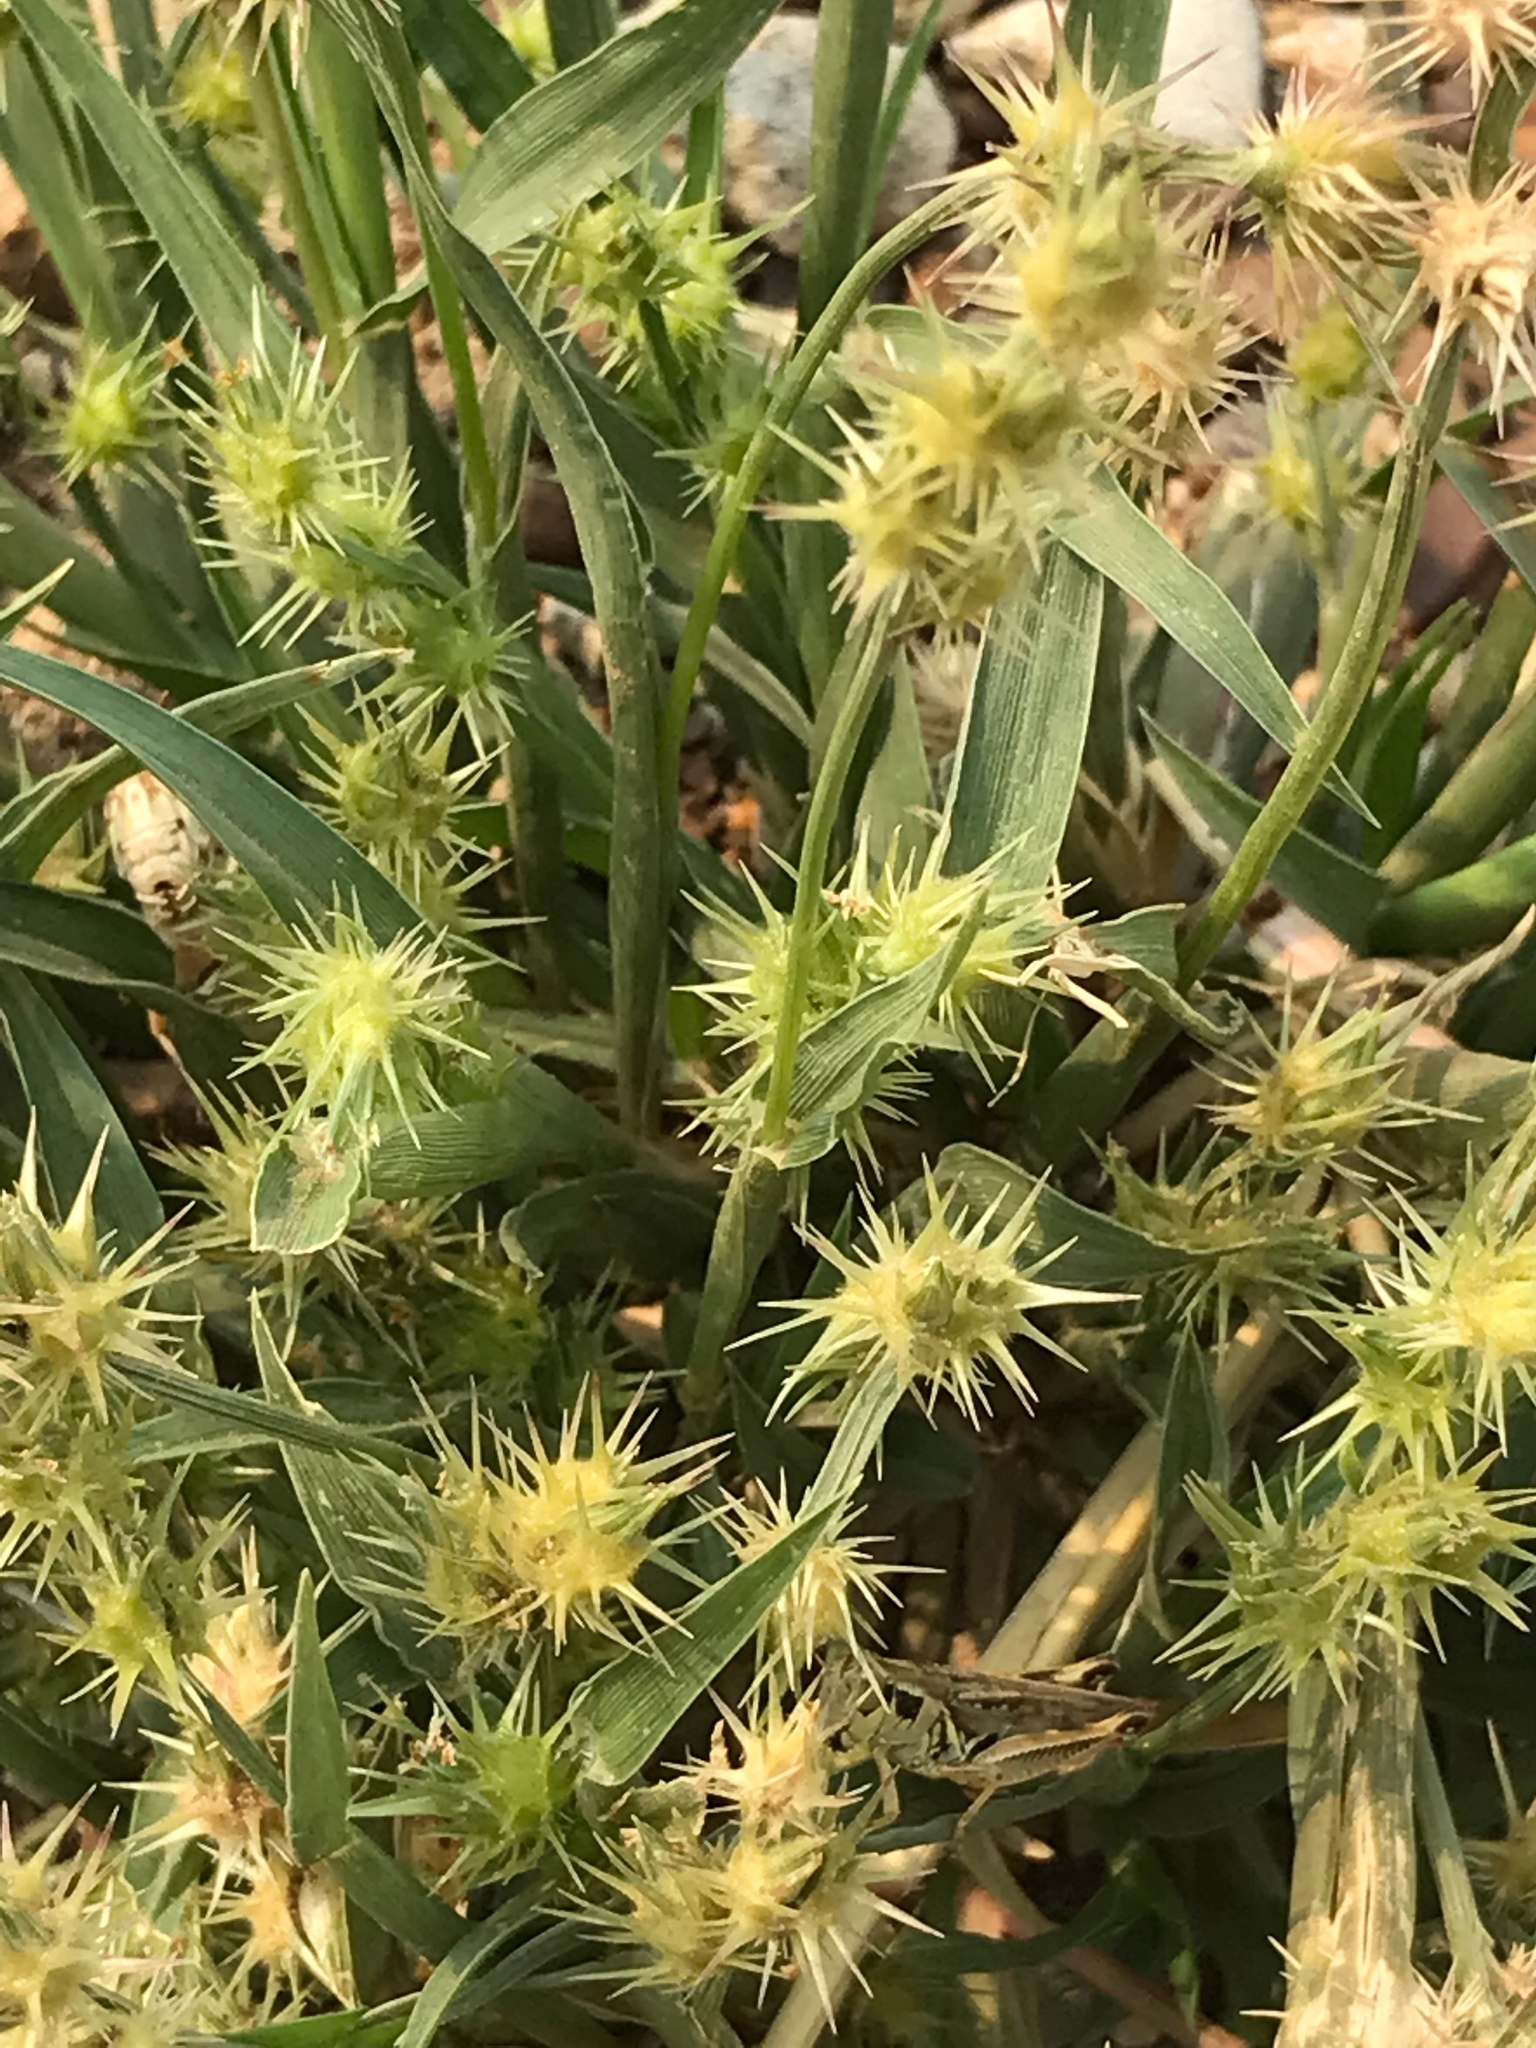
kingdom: Plantae
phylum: Tracheophyta
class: Liliopsida
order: Poales
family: Poaceae
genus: Cenchrus
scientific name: Cenchrus longispinus
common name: Mat sandbur
